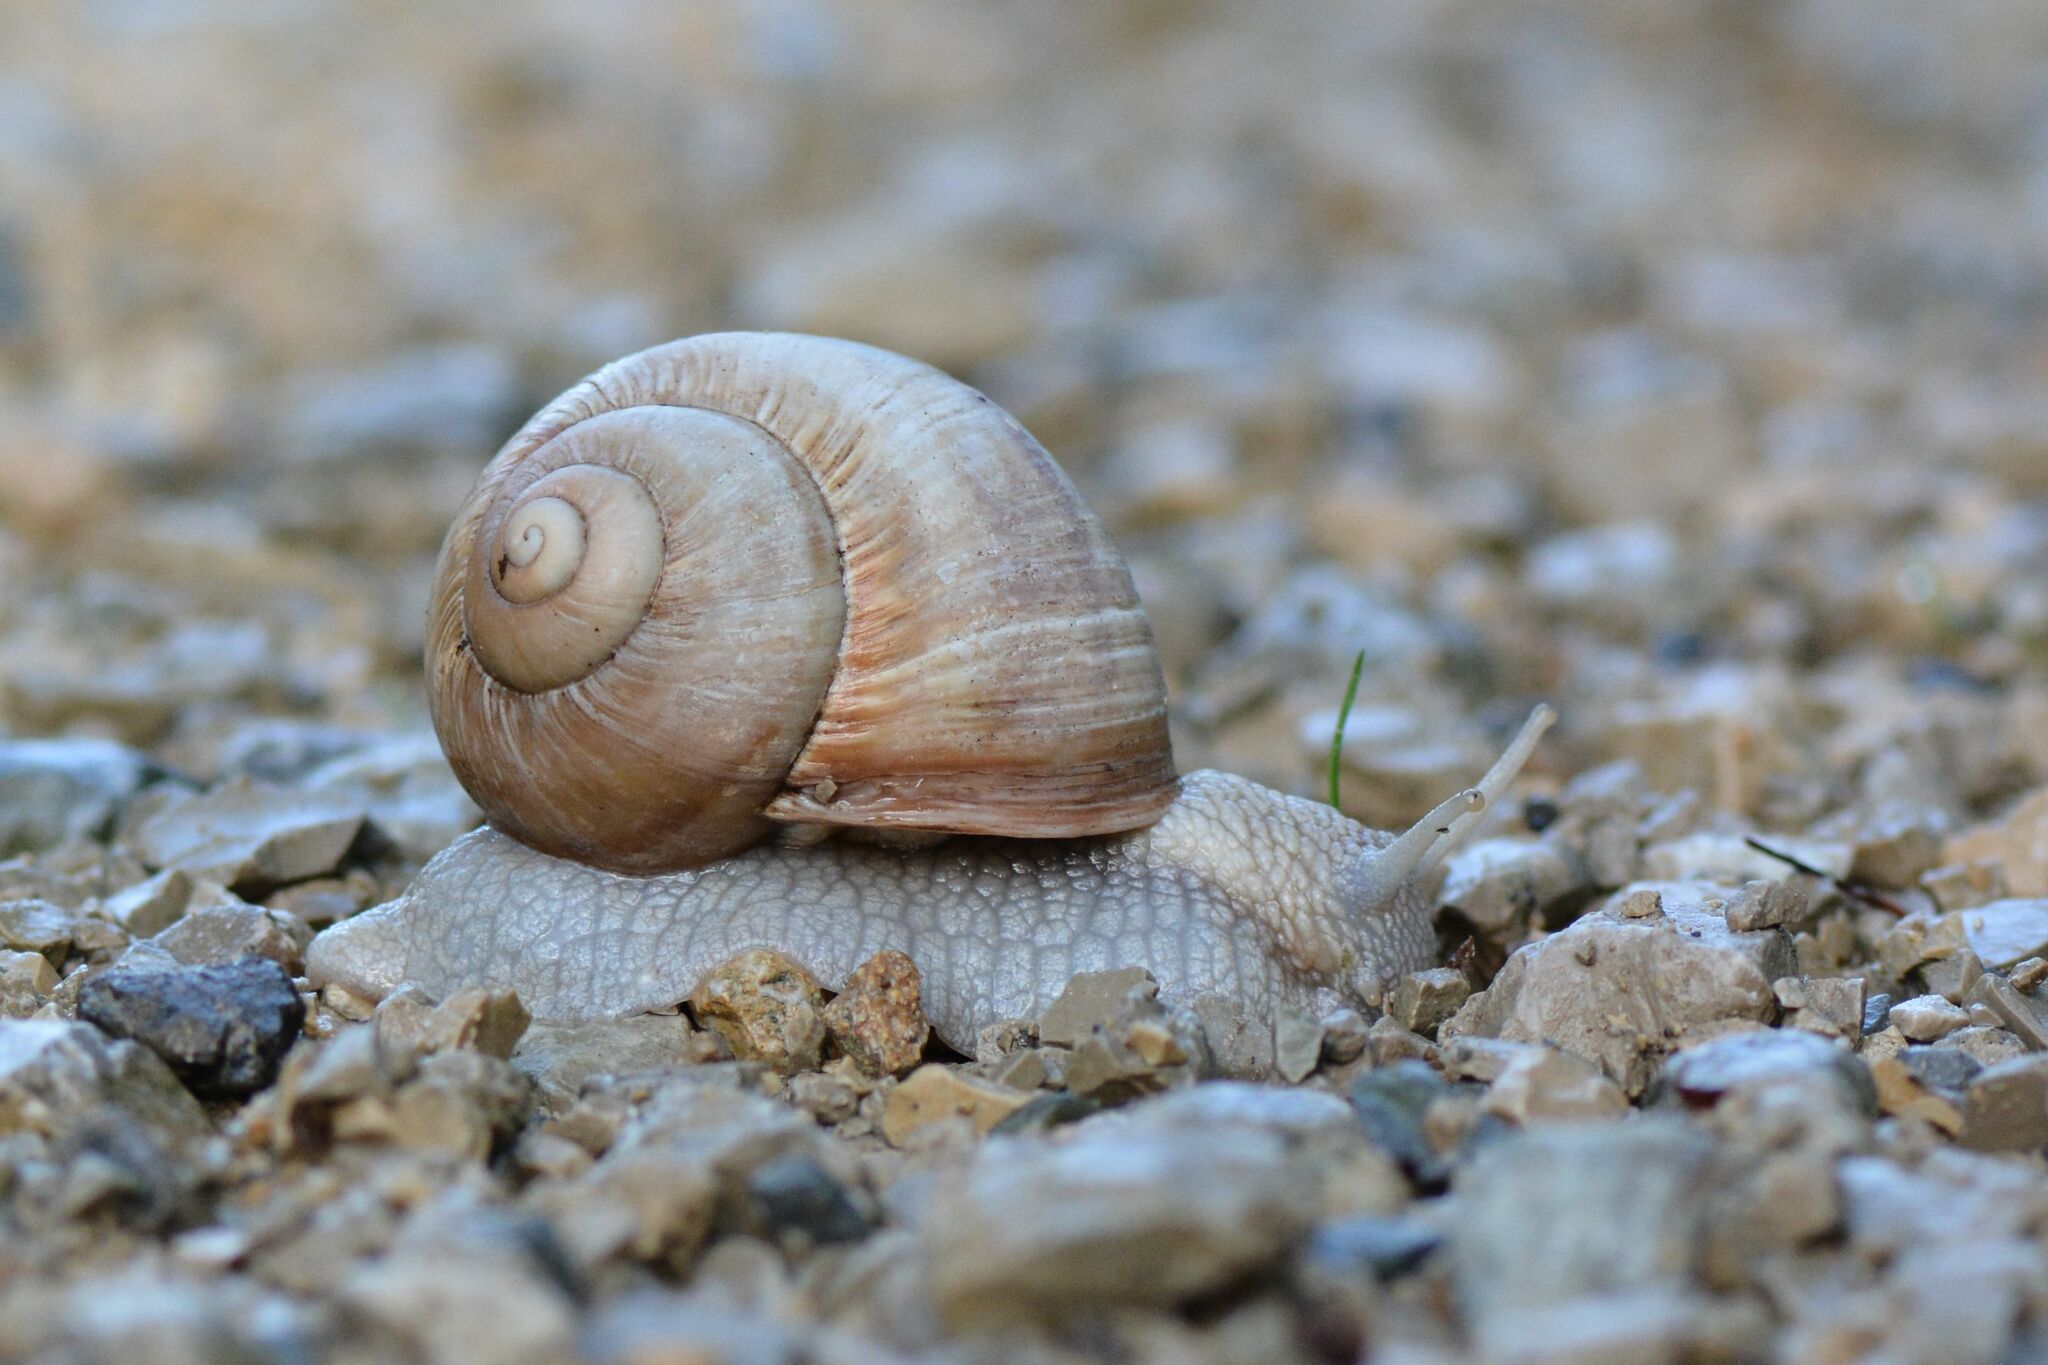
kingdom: Animalia
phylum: Mollusca
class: Gastropoda
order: Stylommatophora
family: Helicidae
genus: Helix
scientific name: Helix pomatia
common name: Roman snail
